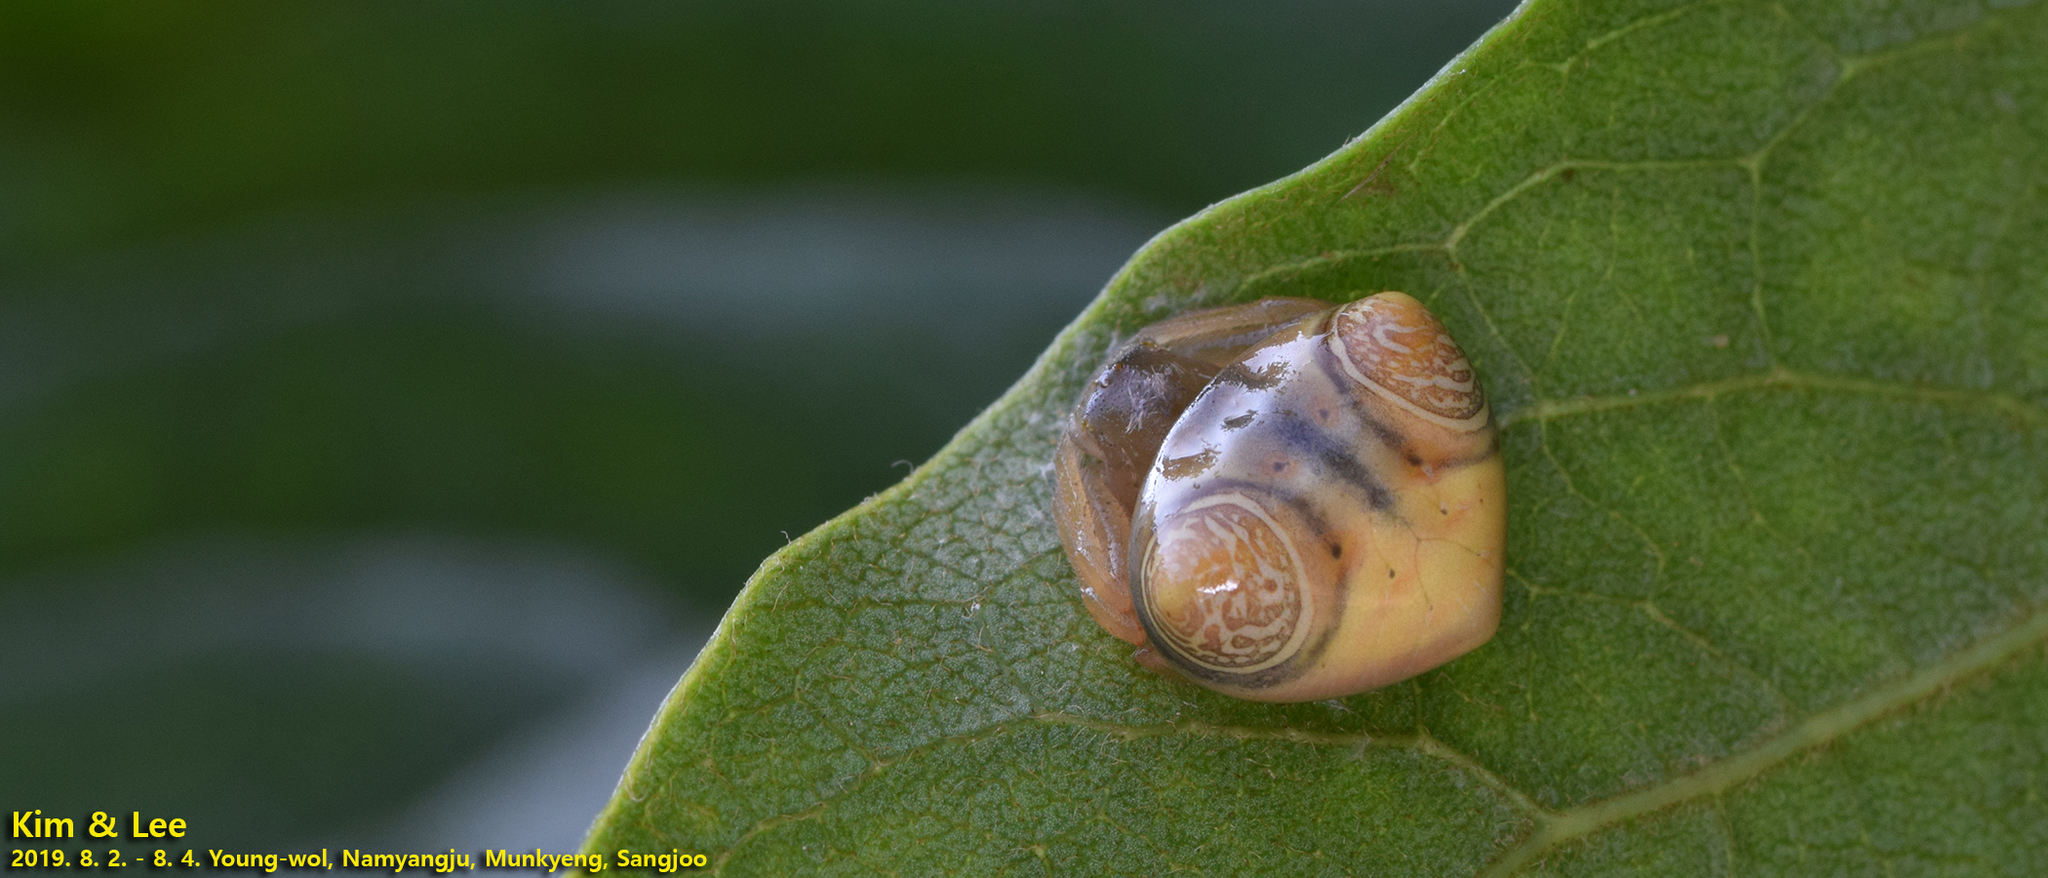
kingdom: Animalia
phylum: Arthropoda
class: Arachnida
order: Araneae
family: Araneidae
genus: Cyrtarachne
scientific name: Cyrtarachne inaequalis
